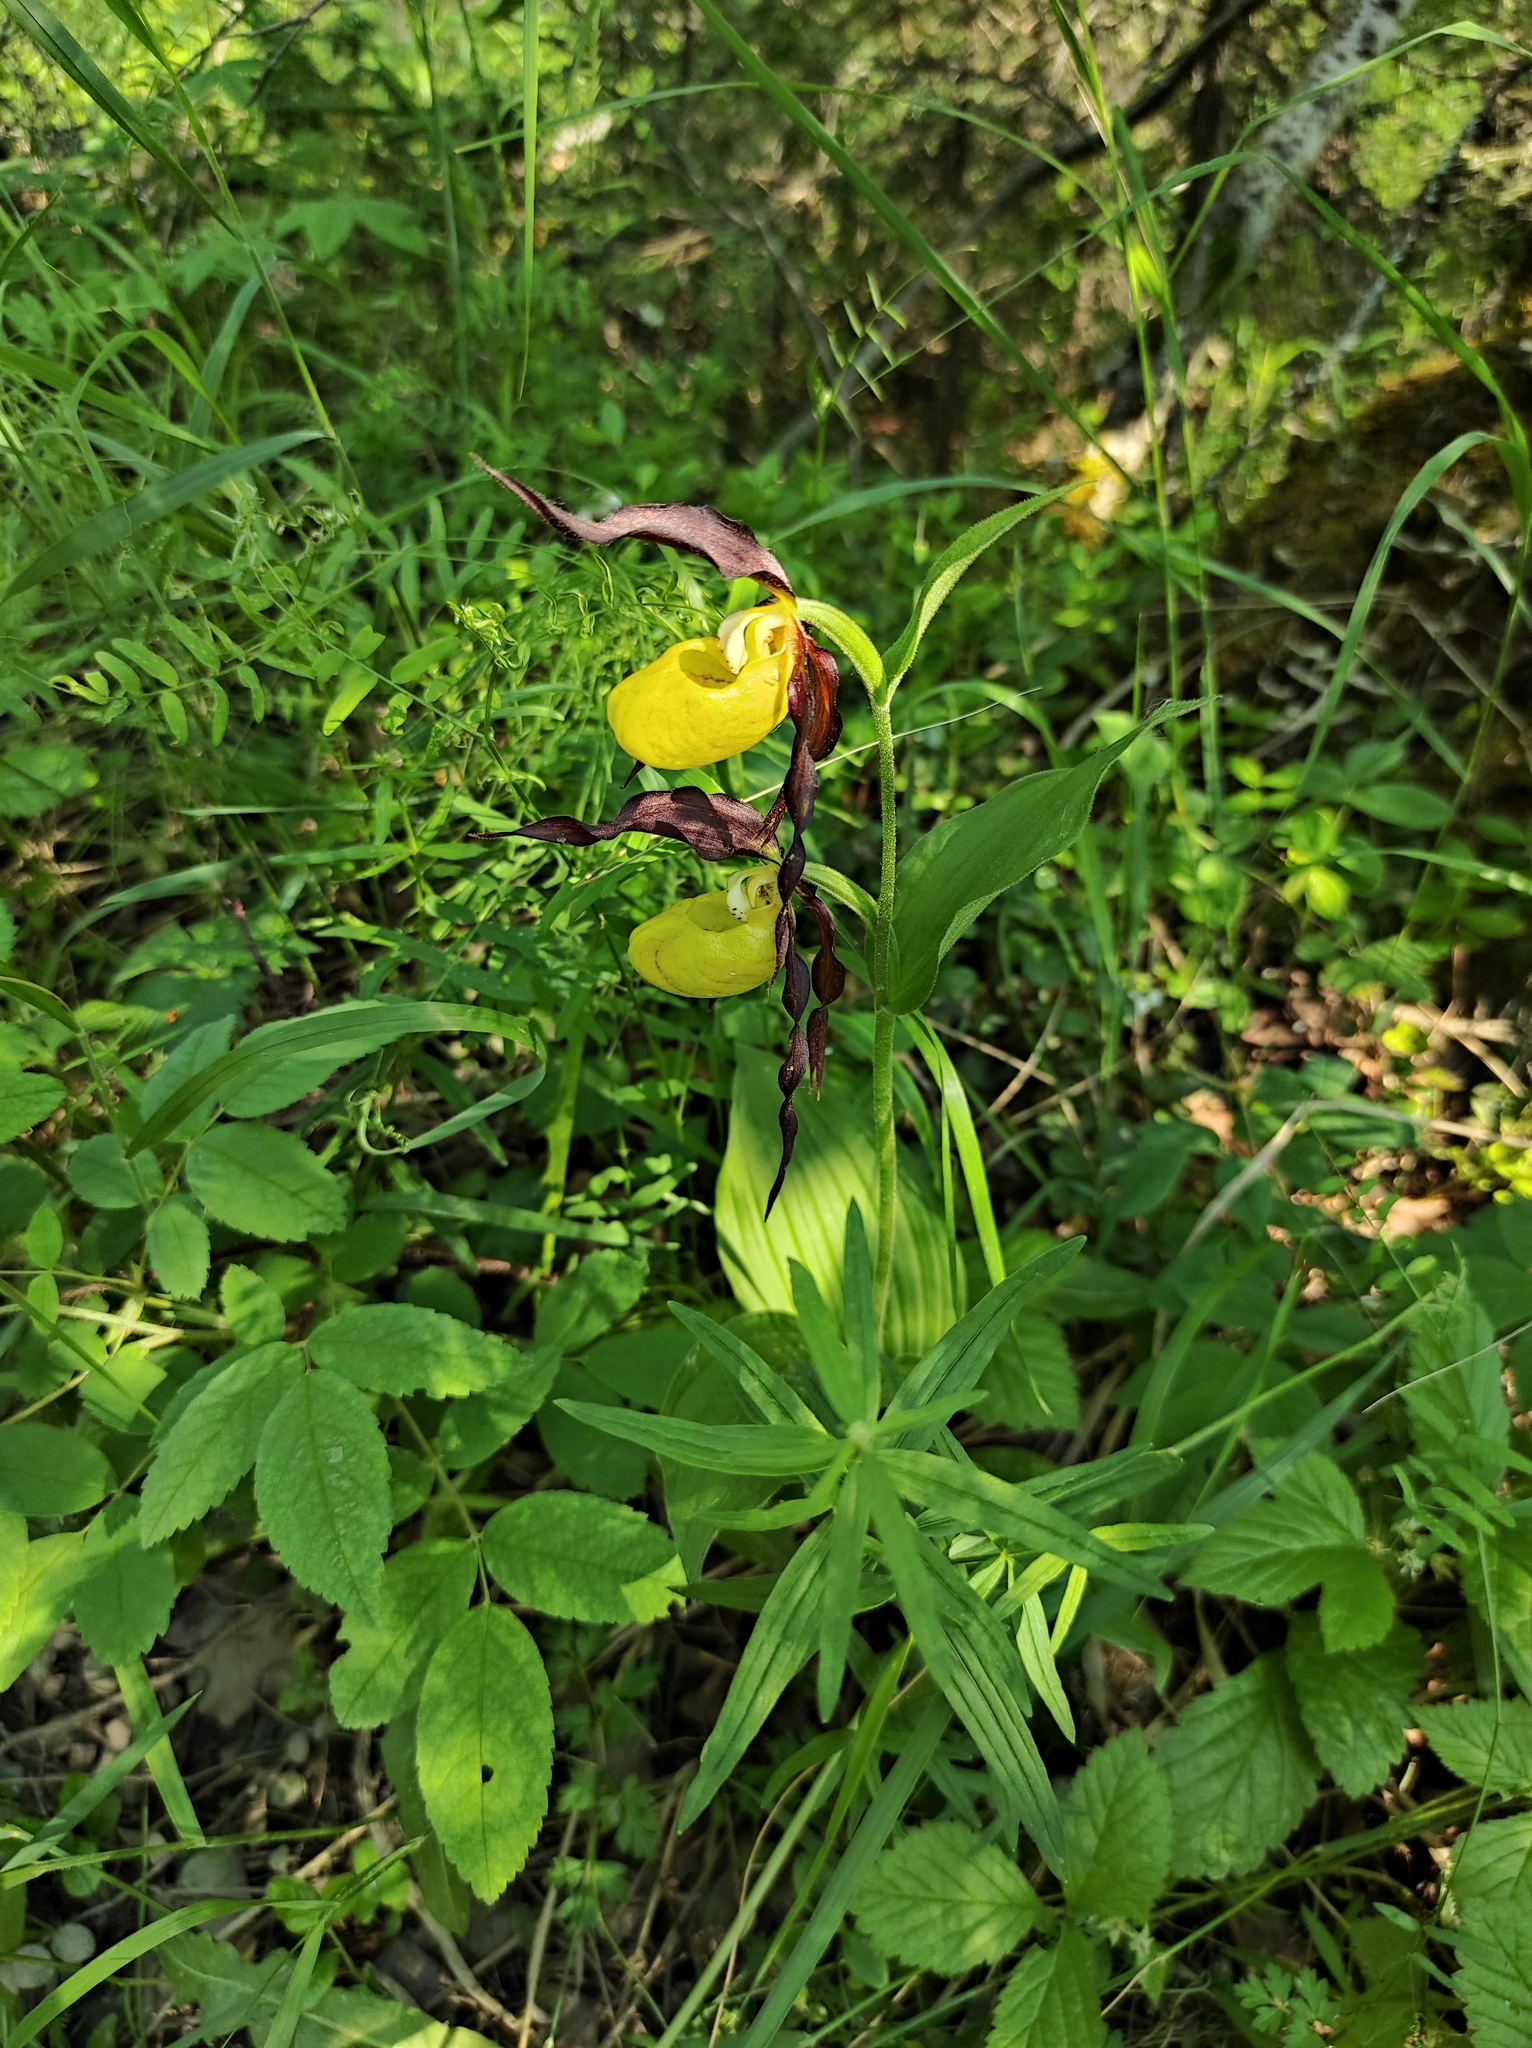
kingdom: Plantae
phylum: Tracheophyta
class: Liliopsida
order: Asparagales
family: Orchidaceae
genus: Cypripedium
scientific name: Cypripedium calceolus
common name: Lady's-slipper
